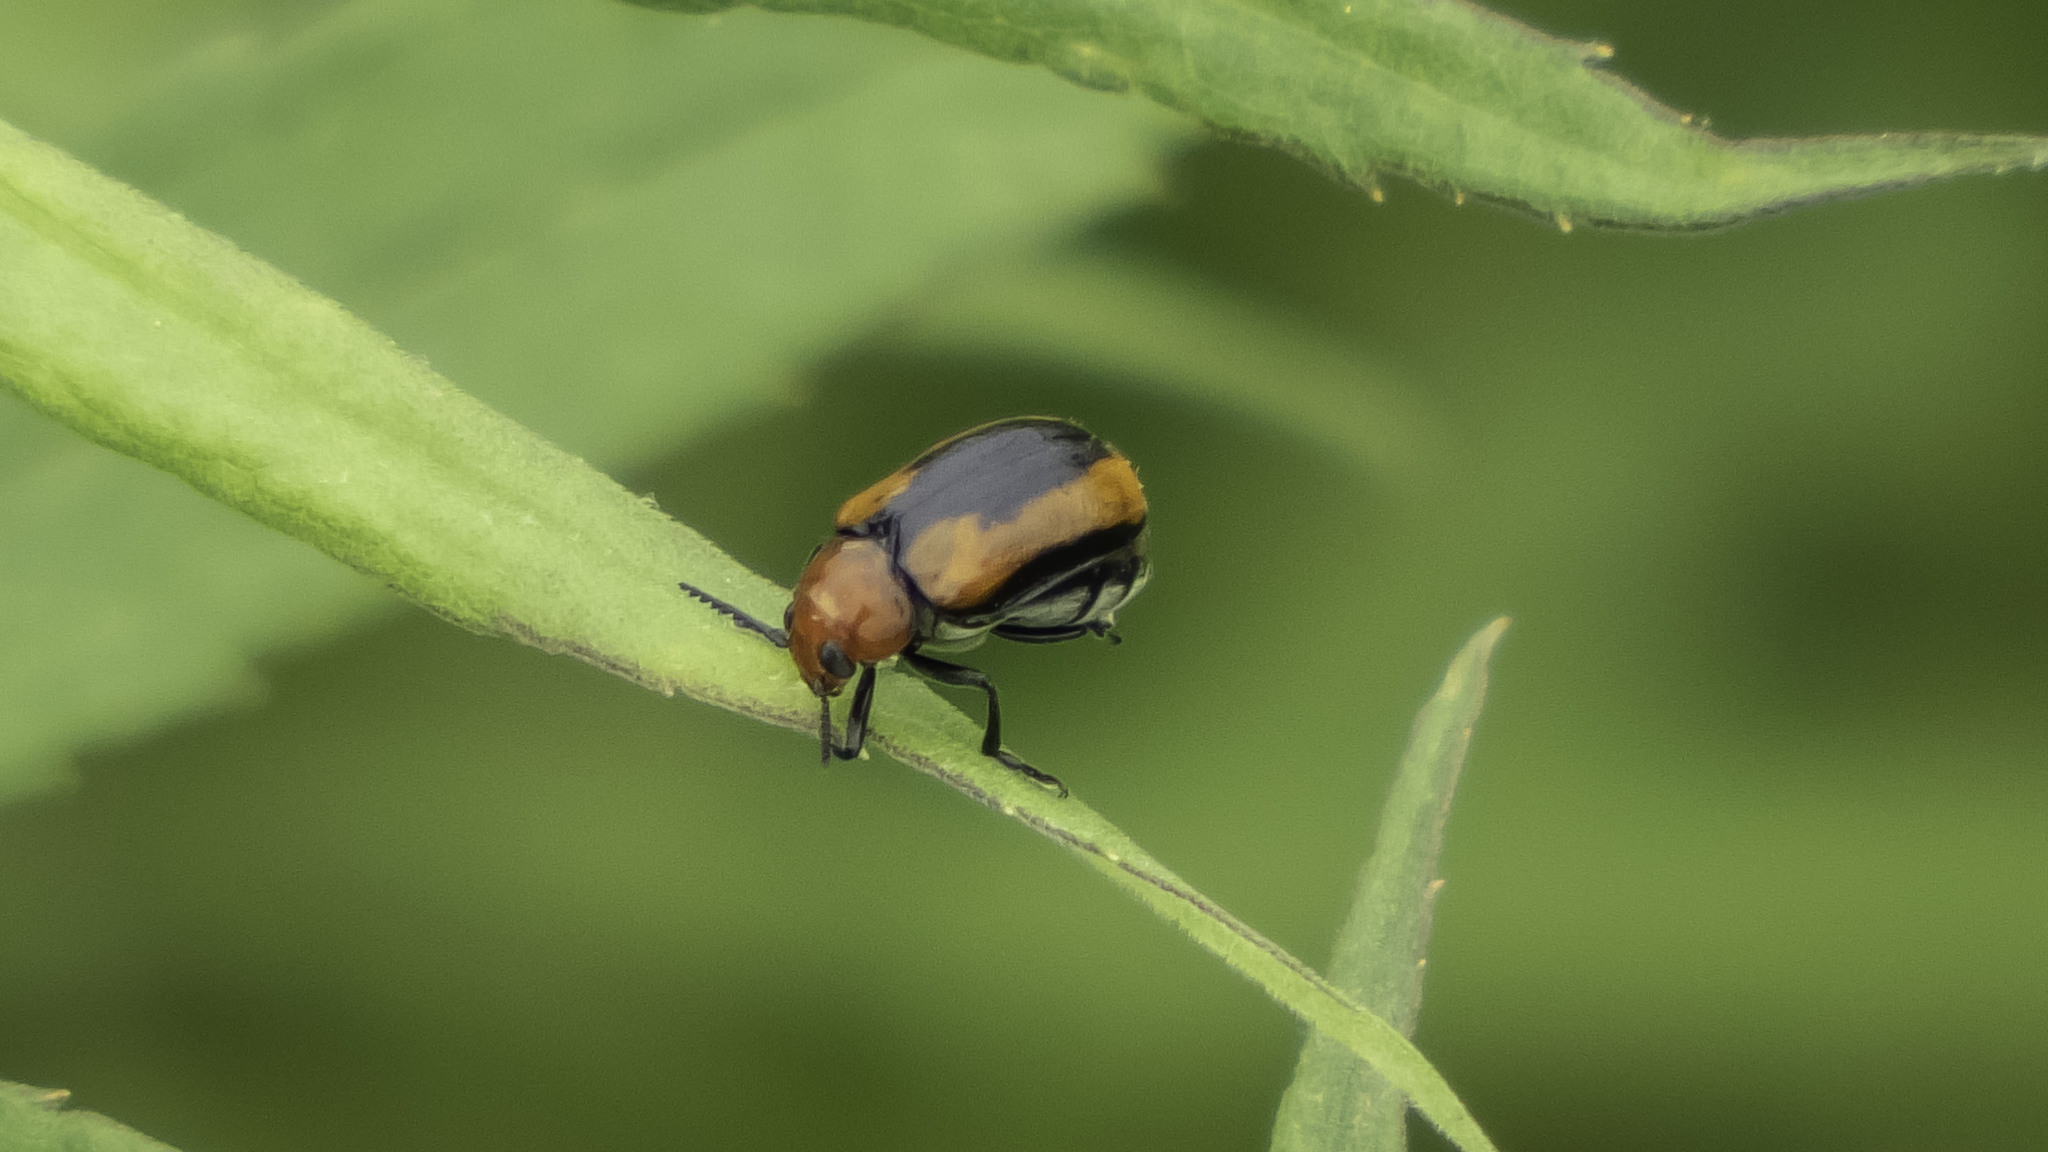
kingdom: Animalia
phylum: Arthropoda
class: Insecta
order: Coleoptera
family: Chrysomelidae
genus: Anomoea
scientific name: Anomoea laticlavia
